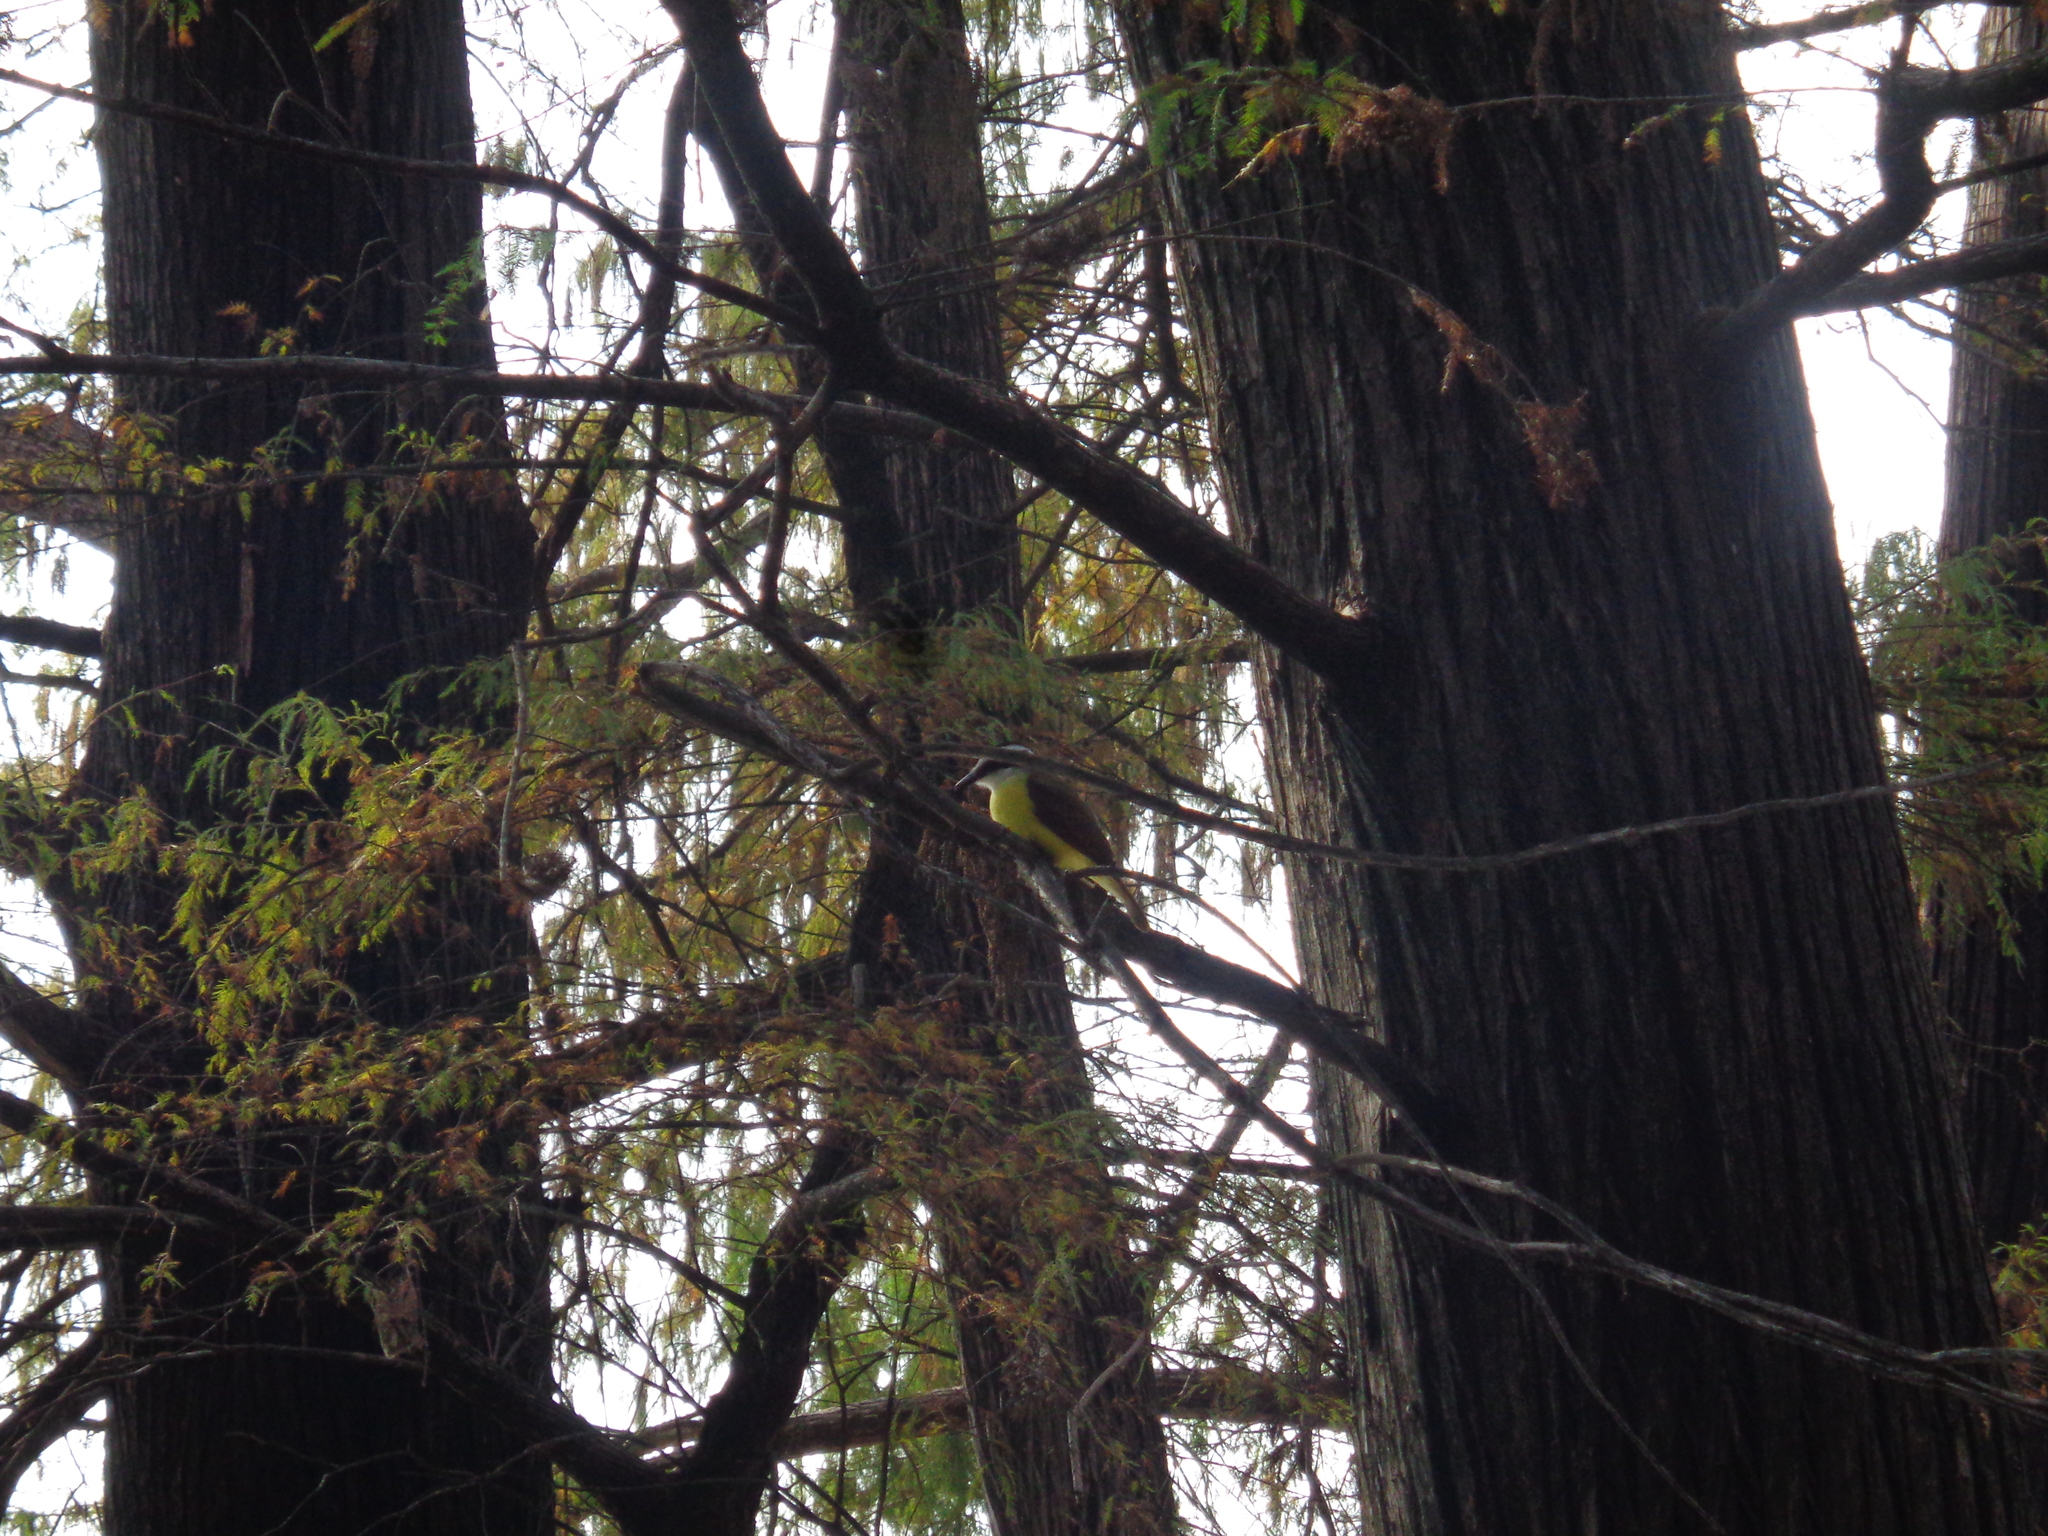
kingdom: Animalia
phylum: Chordata
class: Aves
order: Passeriformes
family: Tyrannidae
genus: Pitangus
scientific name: Pitangus sulphuratus
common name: Great kiskadee
